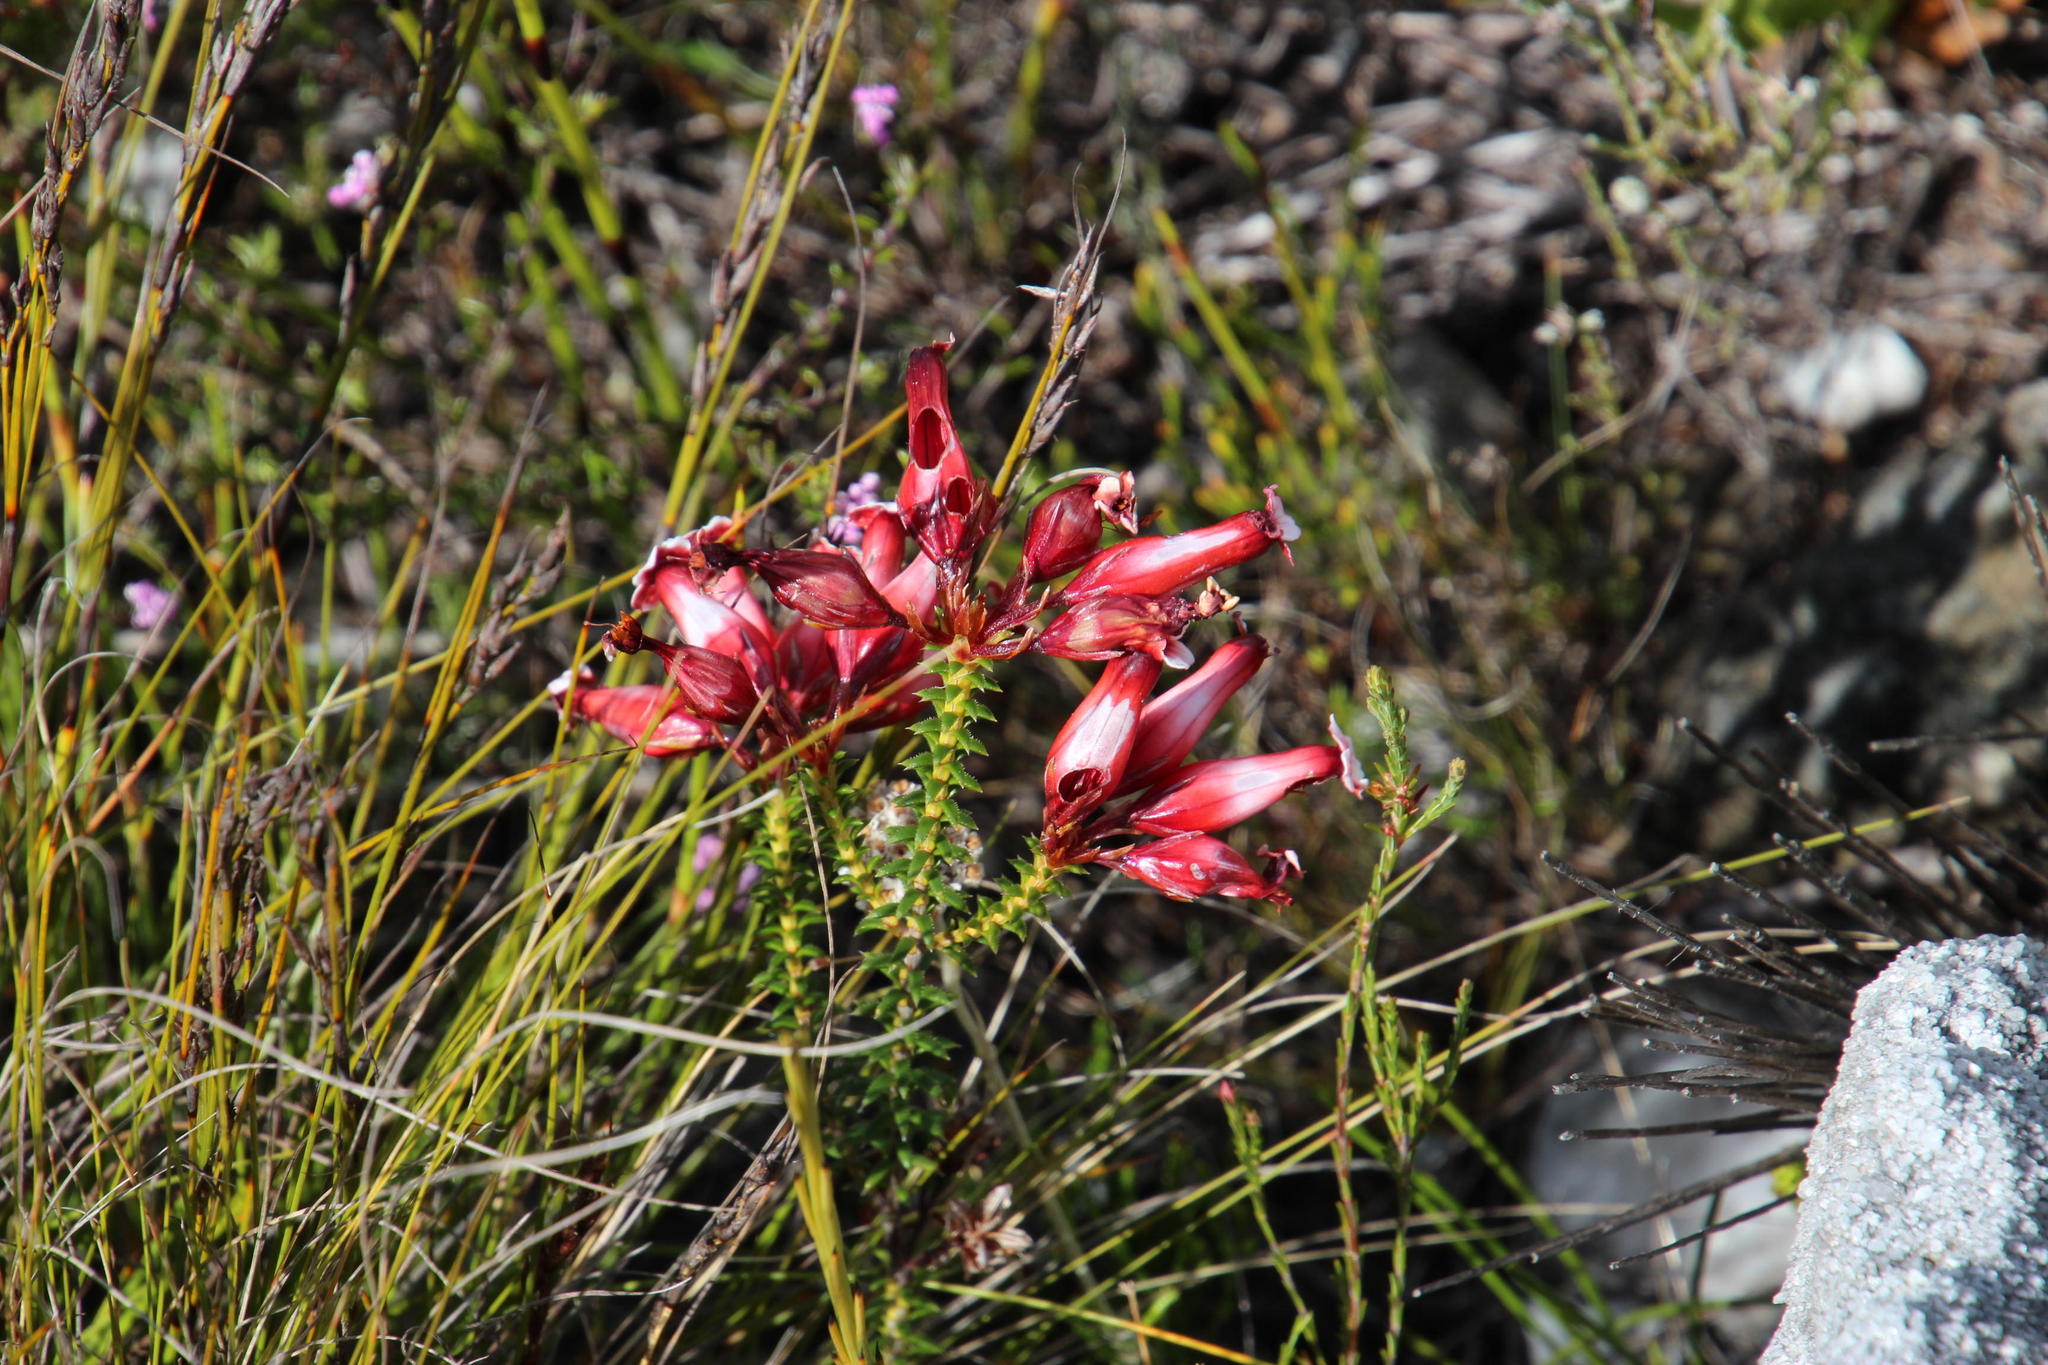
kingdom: Plantae
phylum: Tracheophyta
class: Magnoliopsida
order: Ericales
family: Ericaceae
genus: Erica
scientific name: Erica aristata
